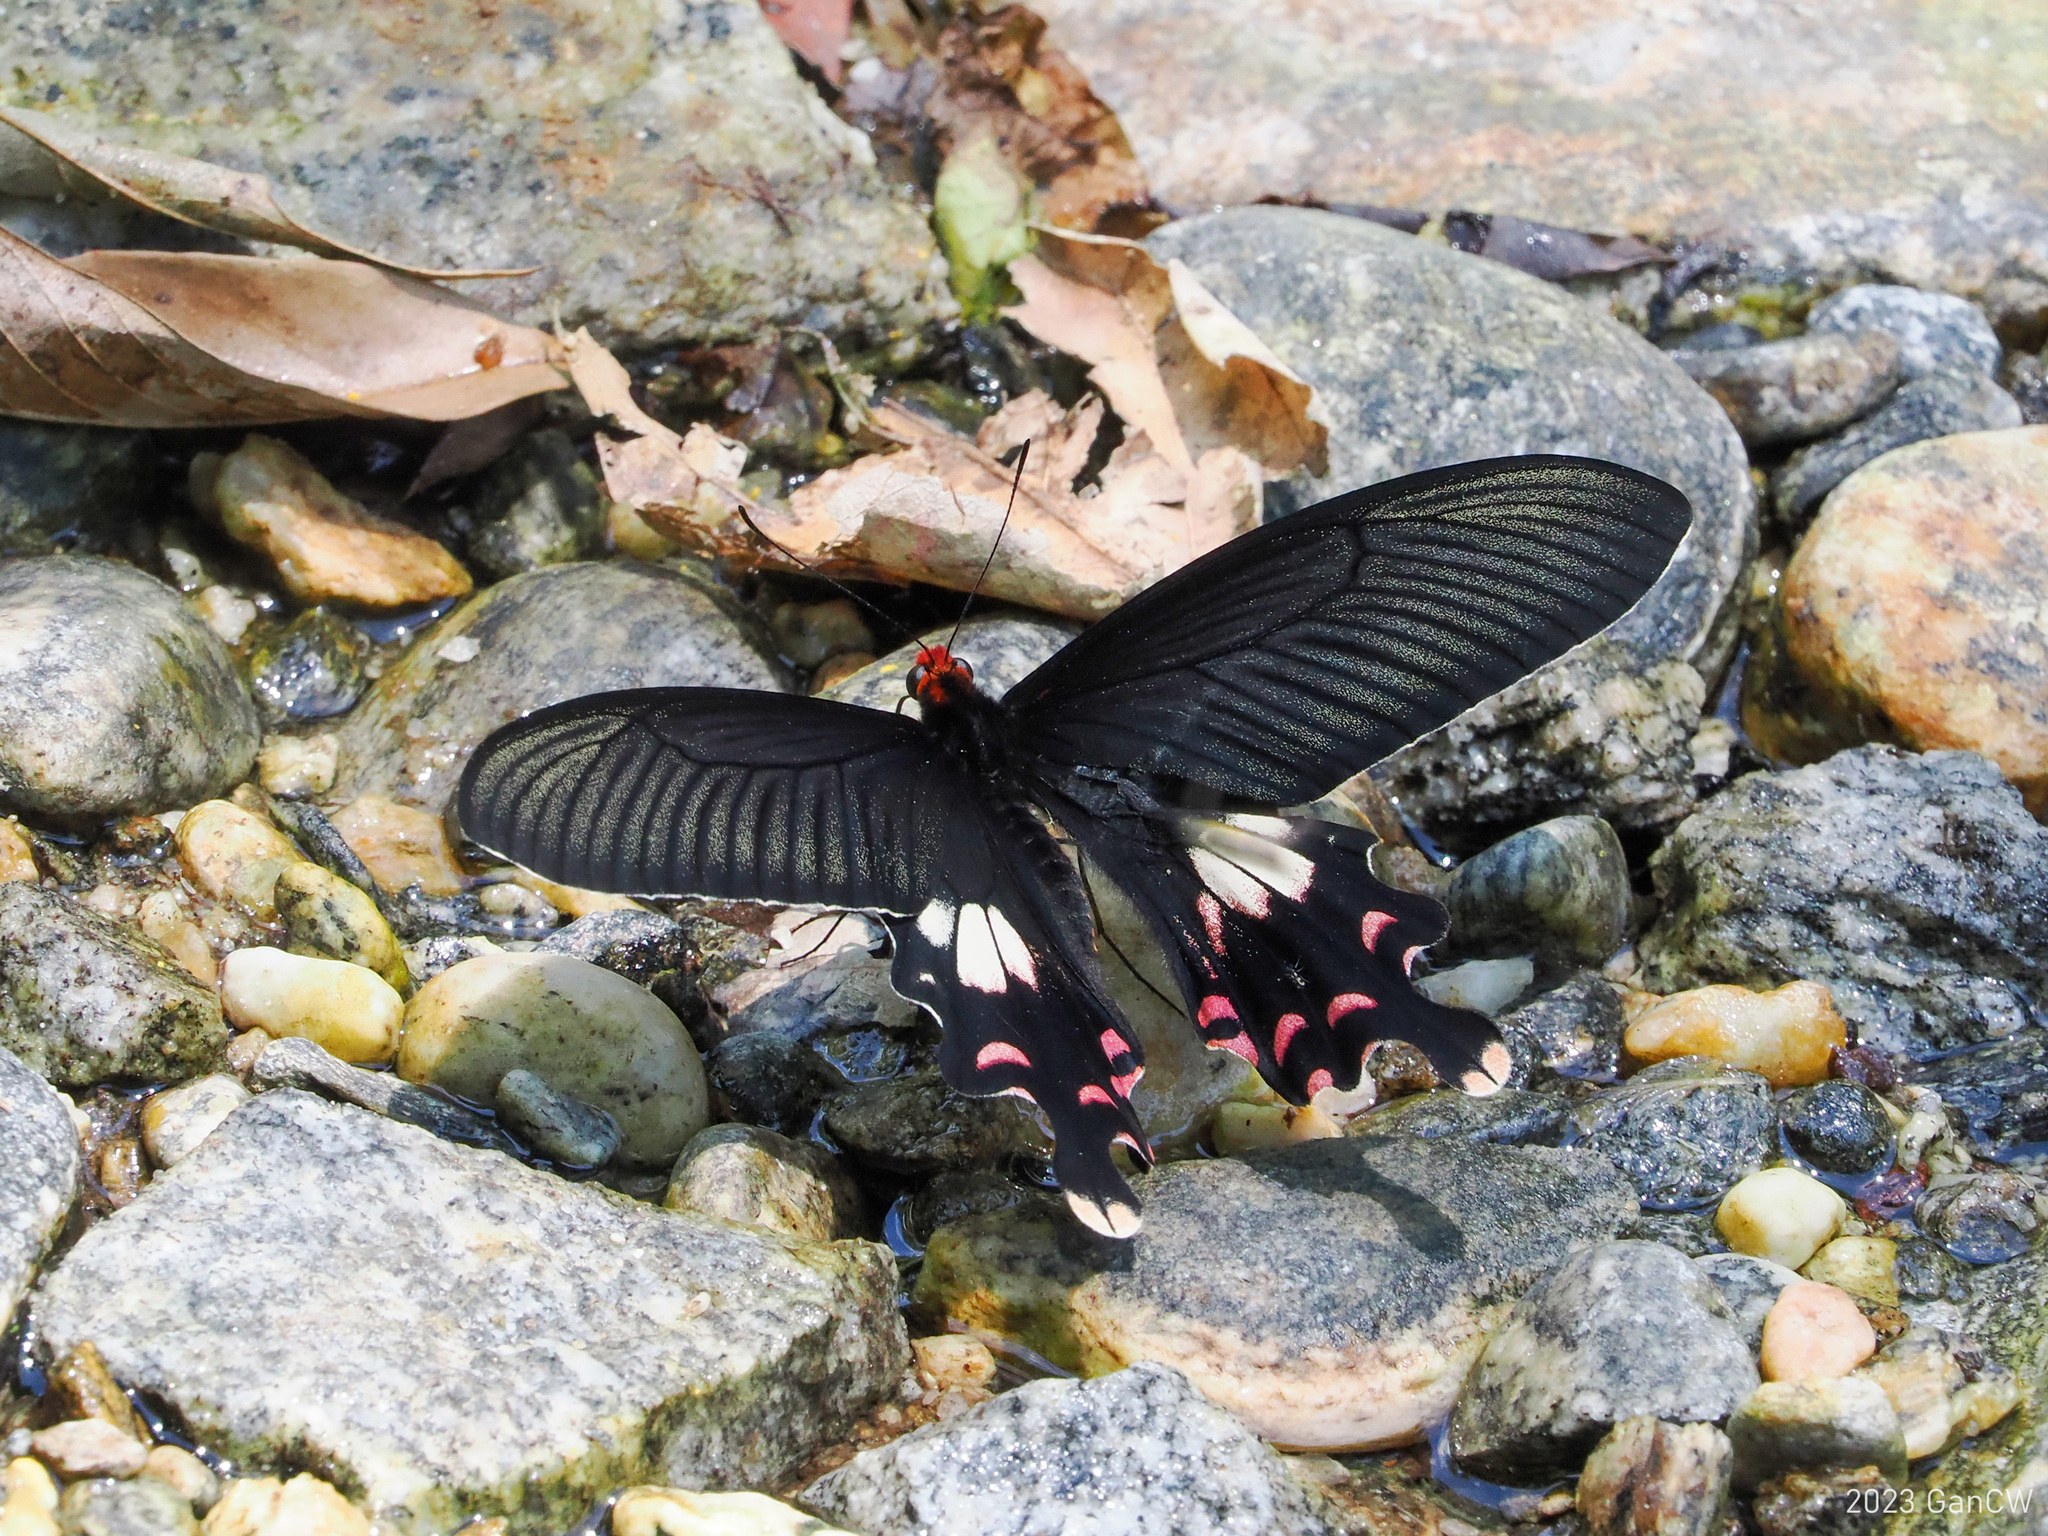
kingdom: Animalia
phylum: Arthropoda
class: Insecta
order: Lepidoptera
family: Papilionidae
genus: Papilio
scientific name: Papilio janaka
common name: Himalayan tailed redbreast
